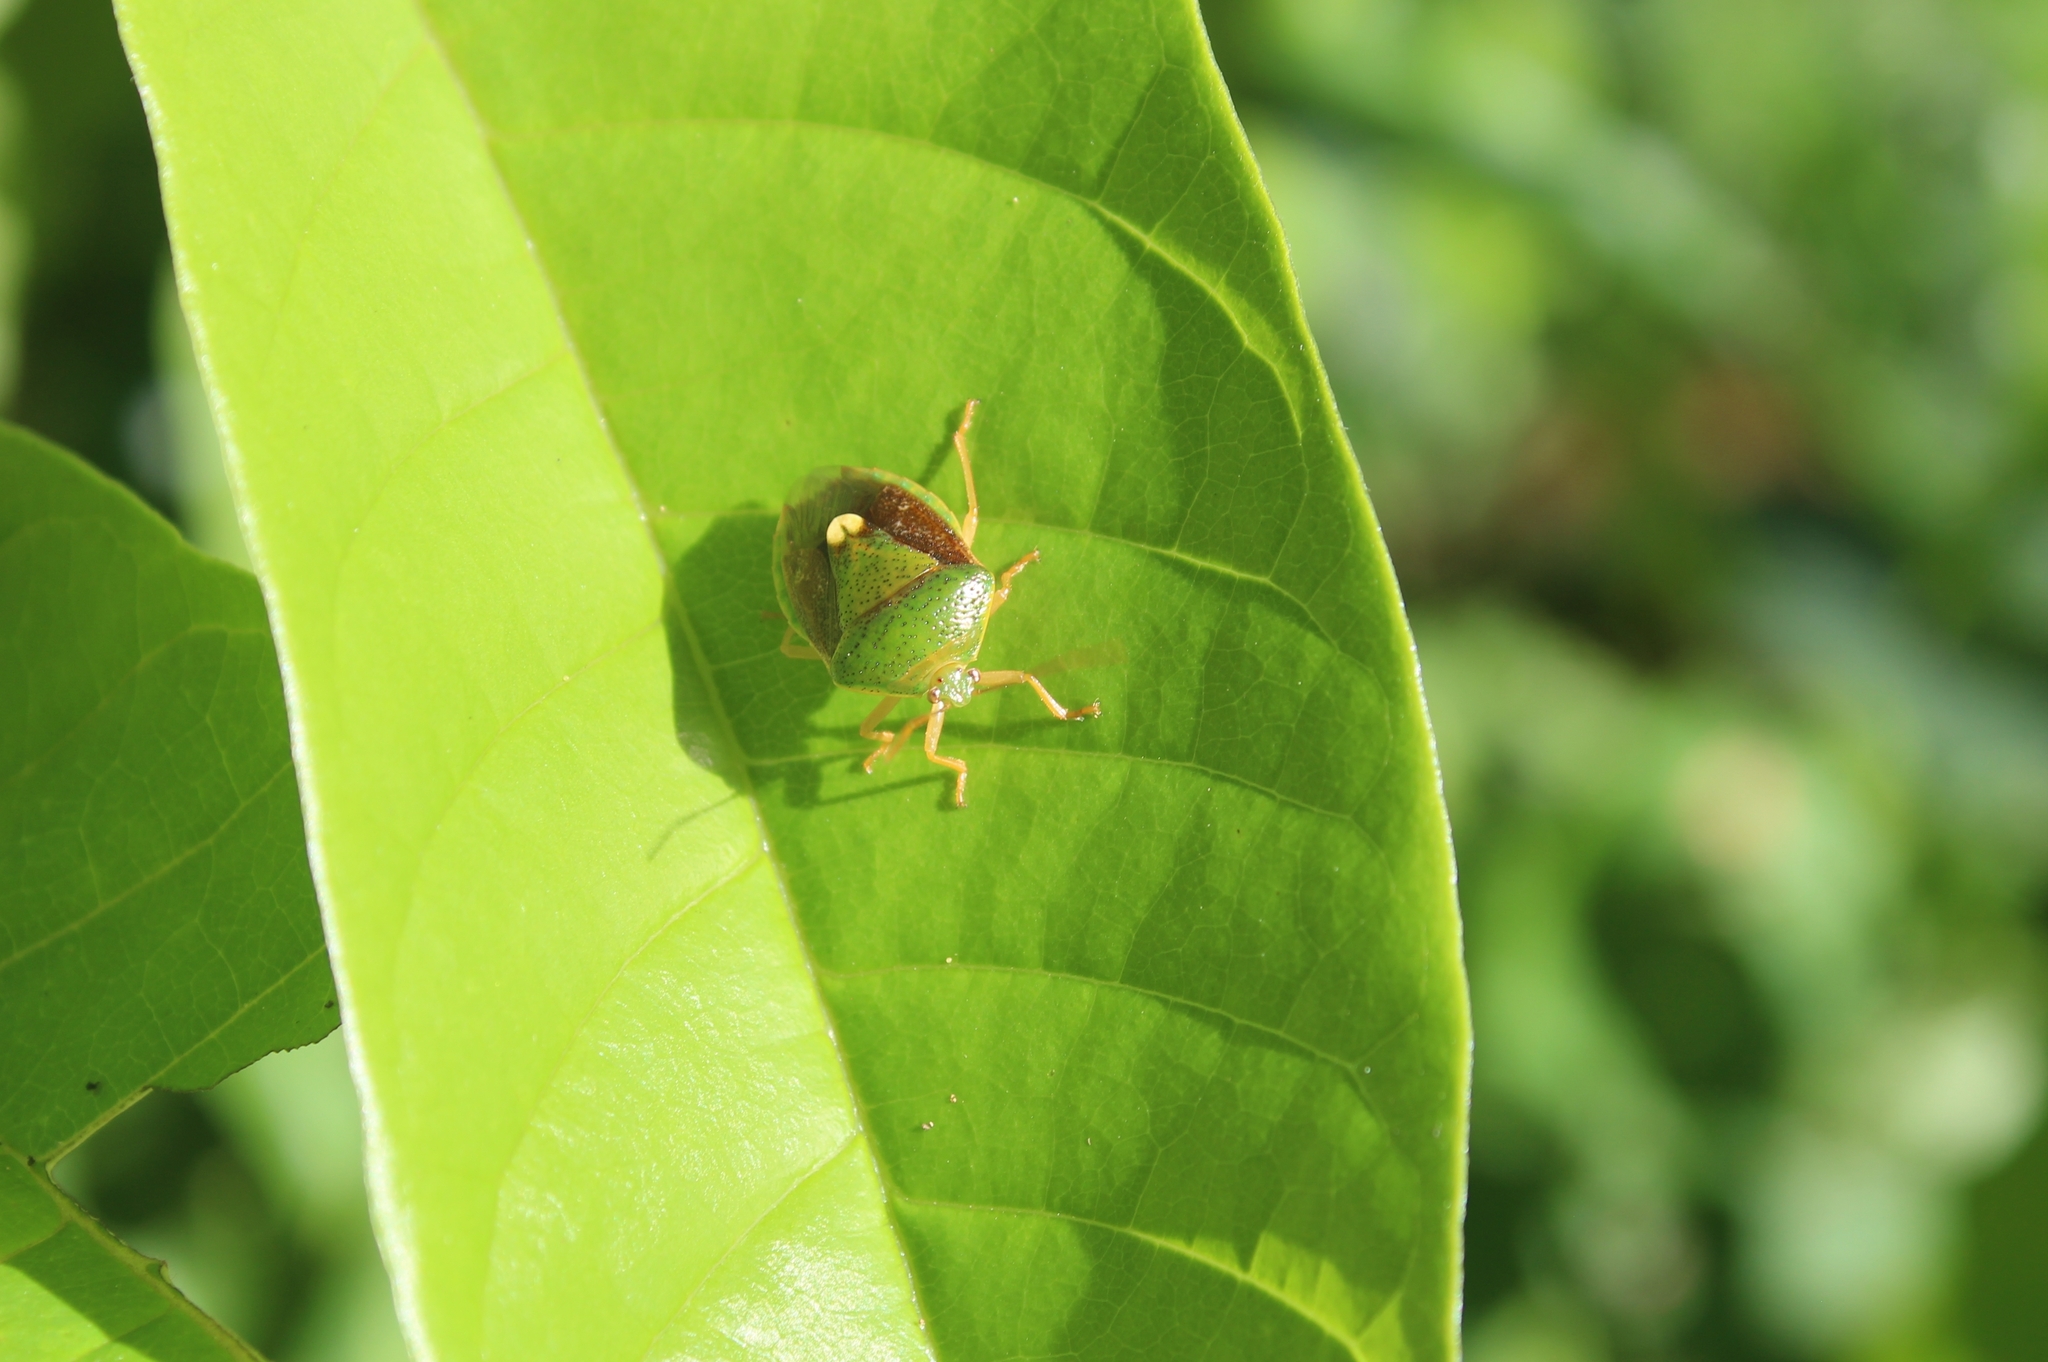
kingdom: Animalia
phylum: Arthropoda
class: Insecta
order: Hemiptera
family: Pentatomidae
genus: Edessa
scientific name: Edessa bifida
